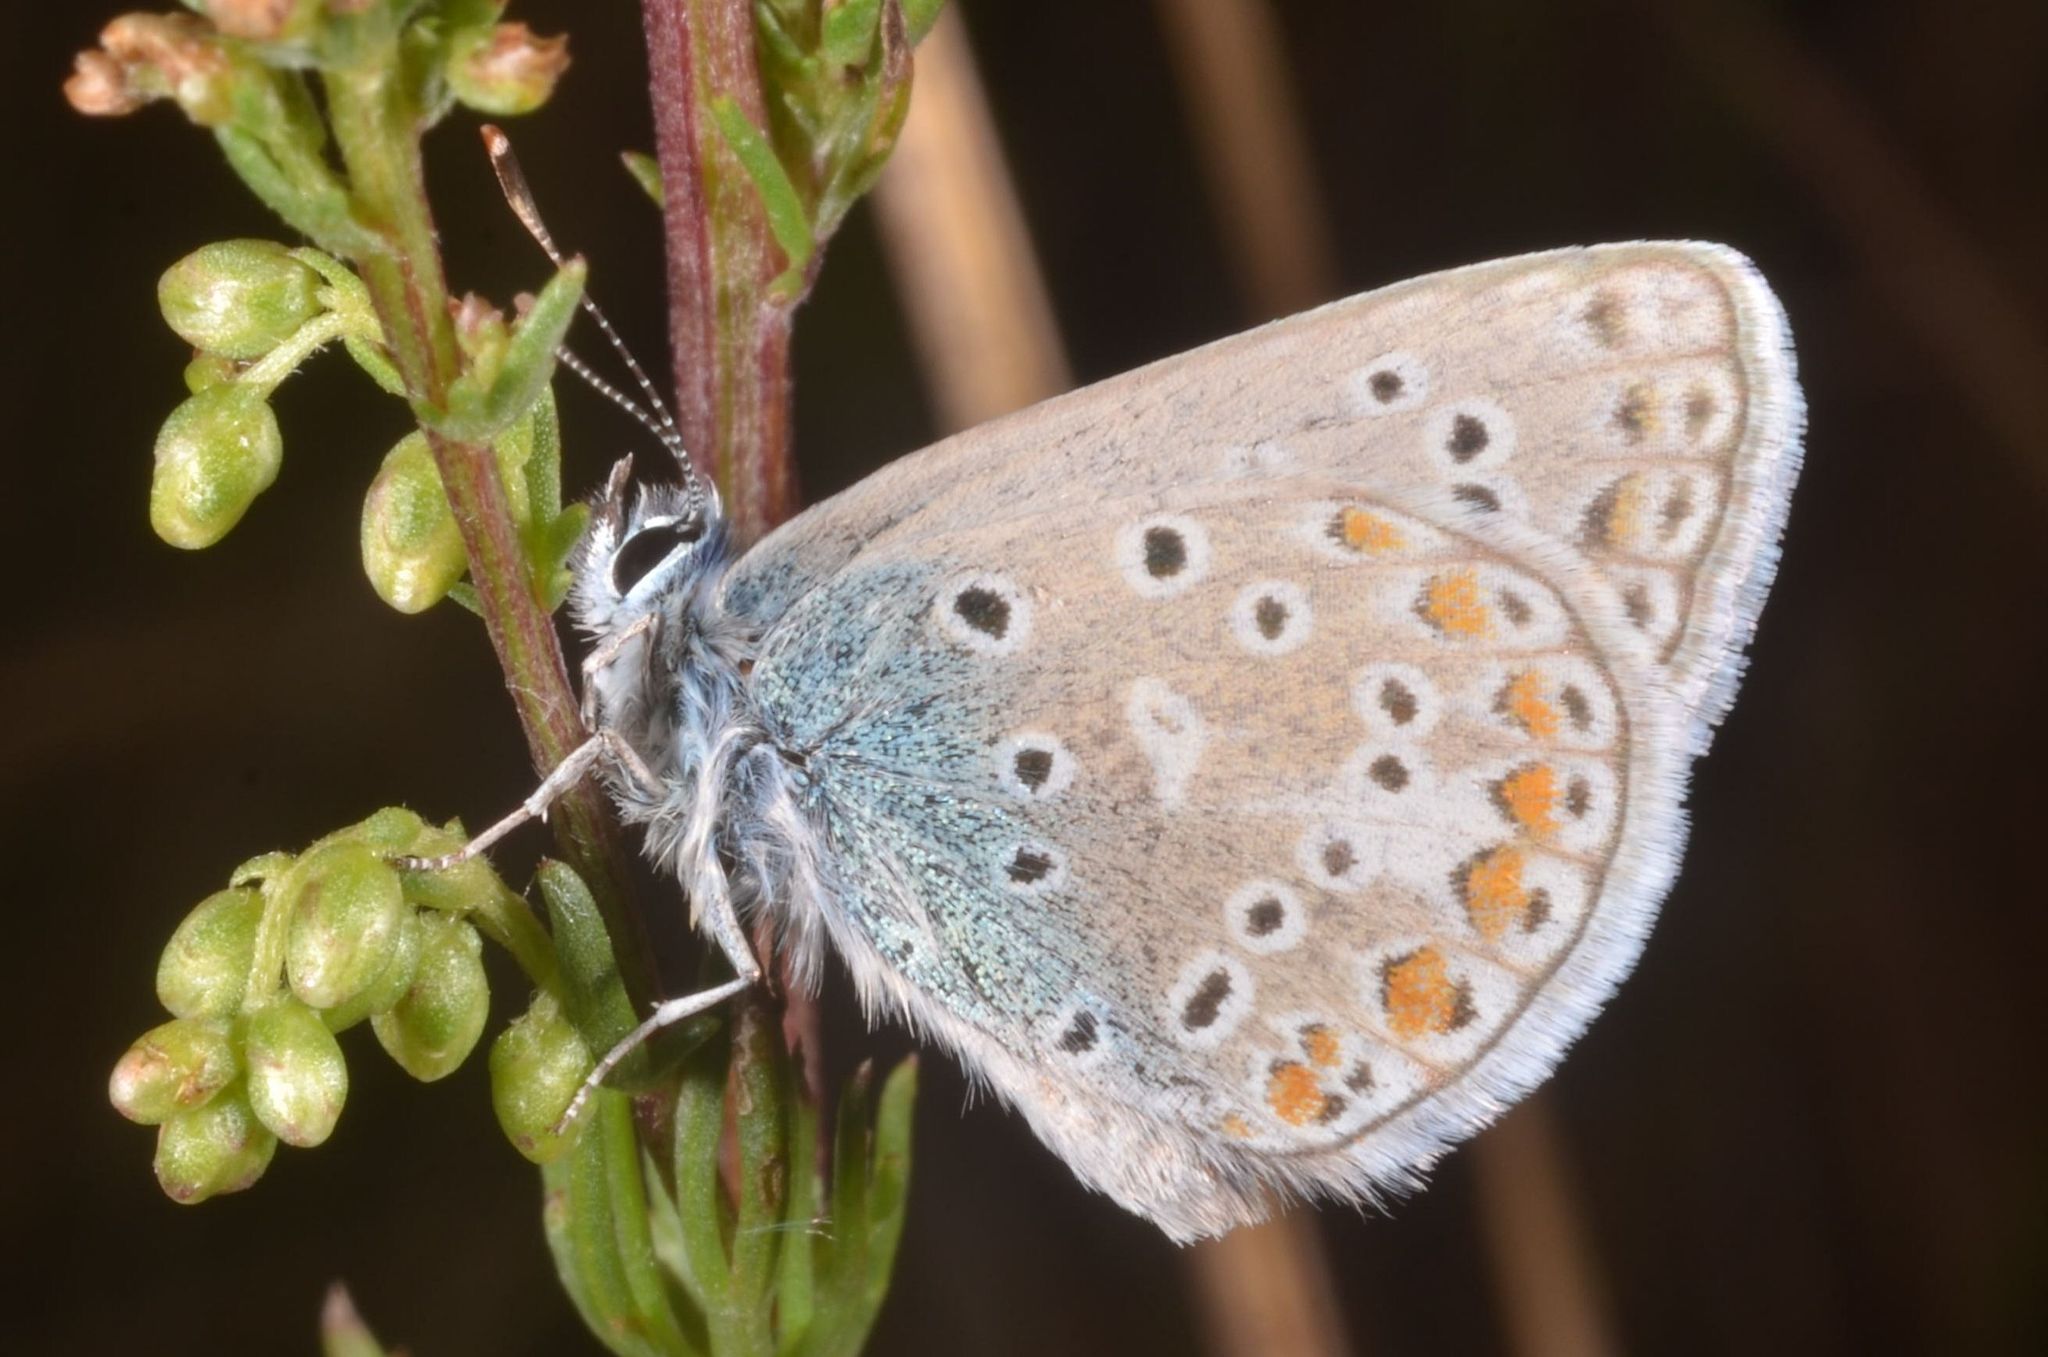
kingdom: Animalia
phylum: Arthropoda
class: Insecta
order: Lepidoptera
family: Lycaenidae
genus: Polyommatus
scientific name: Polyommatus icarus
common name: Common blue
